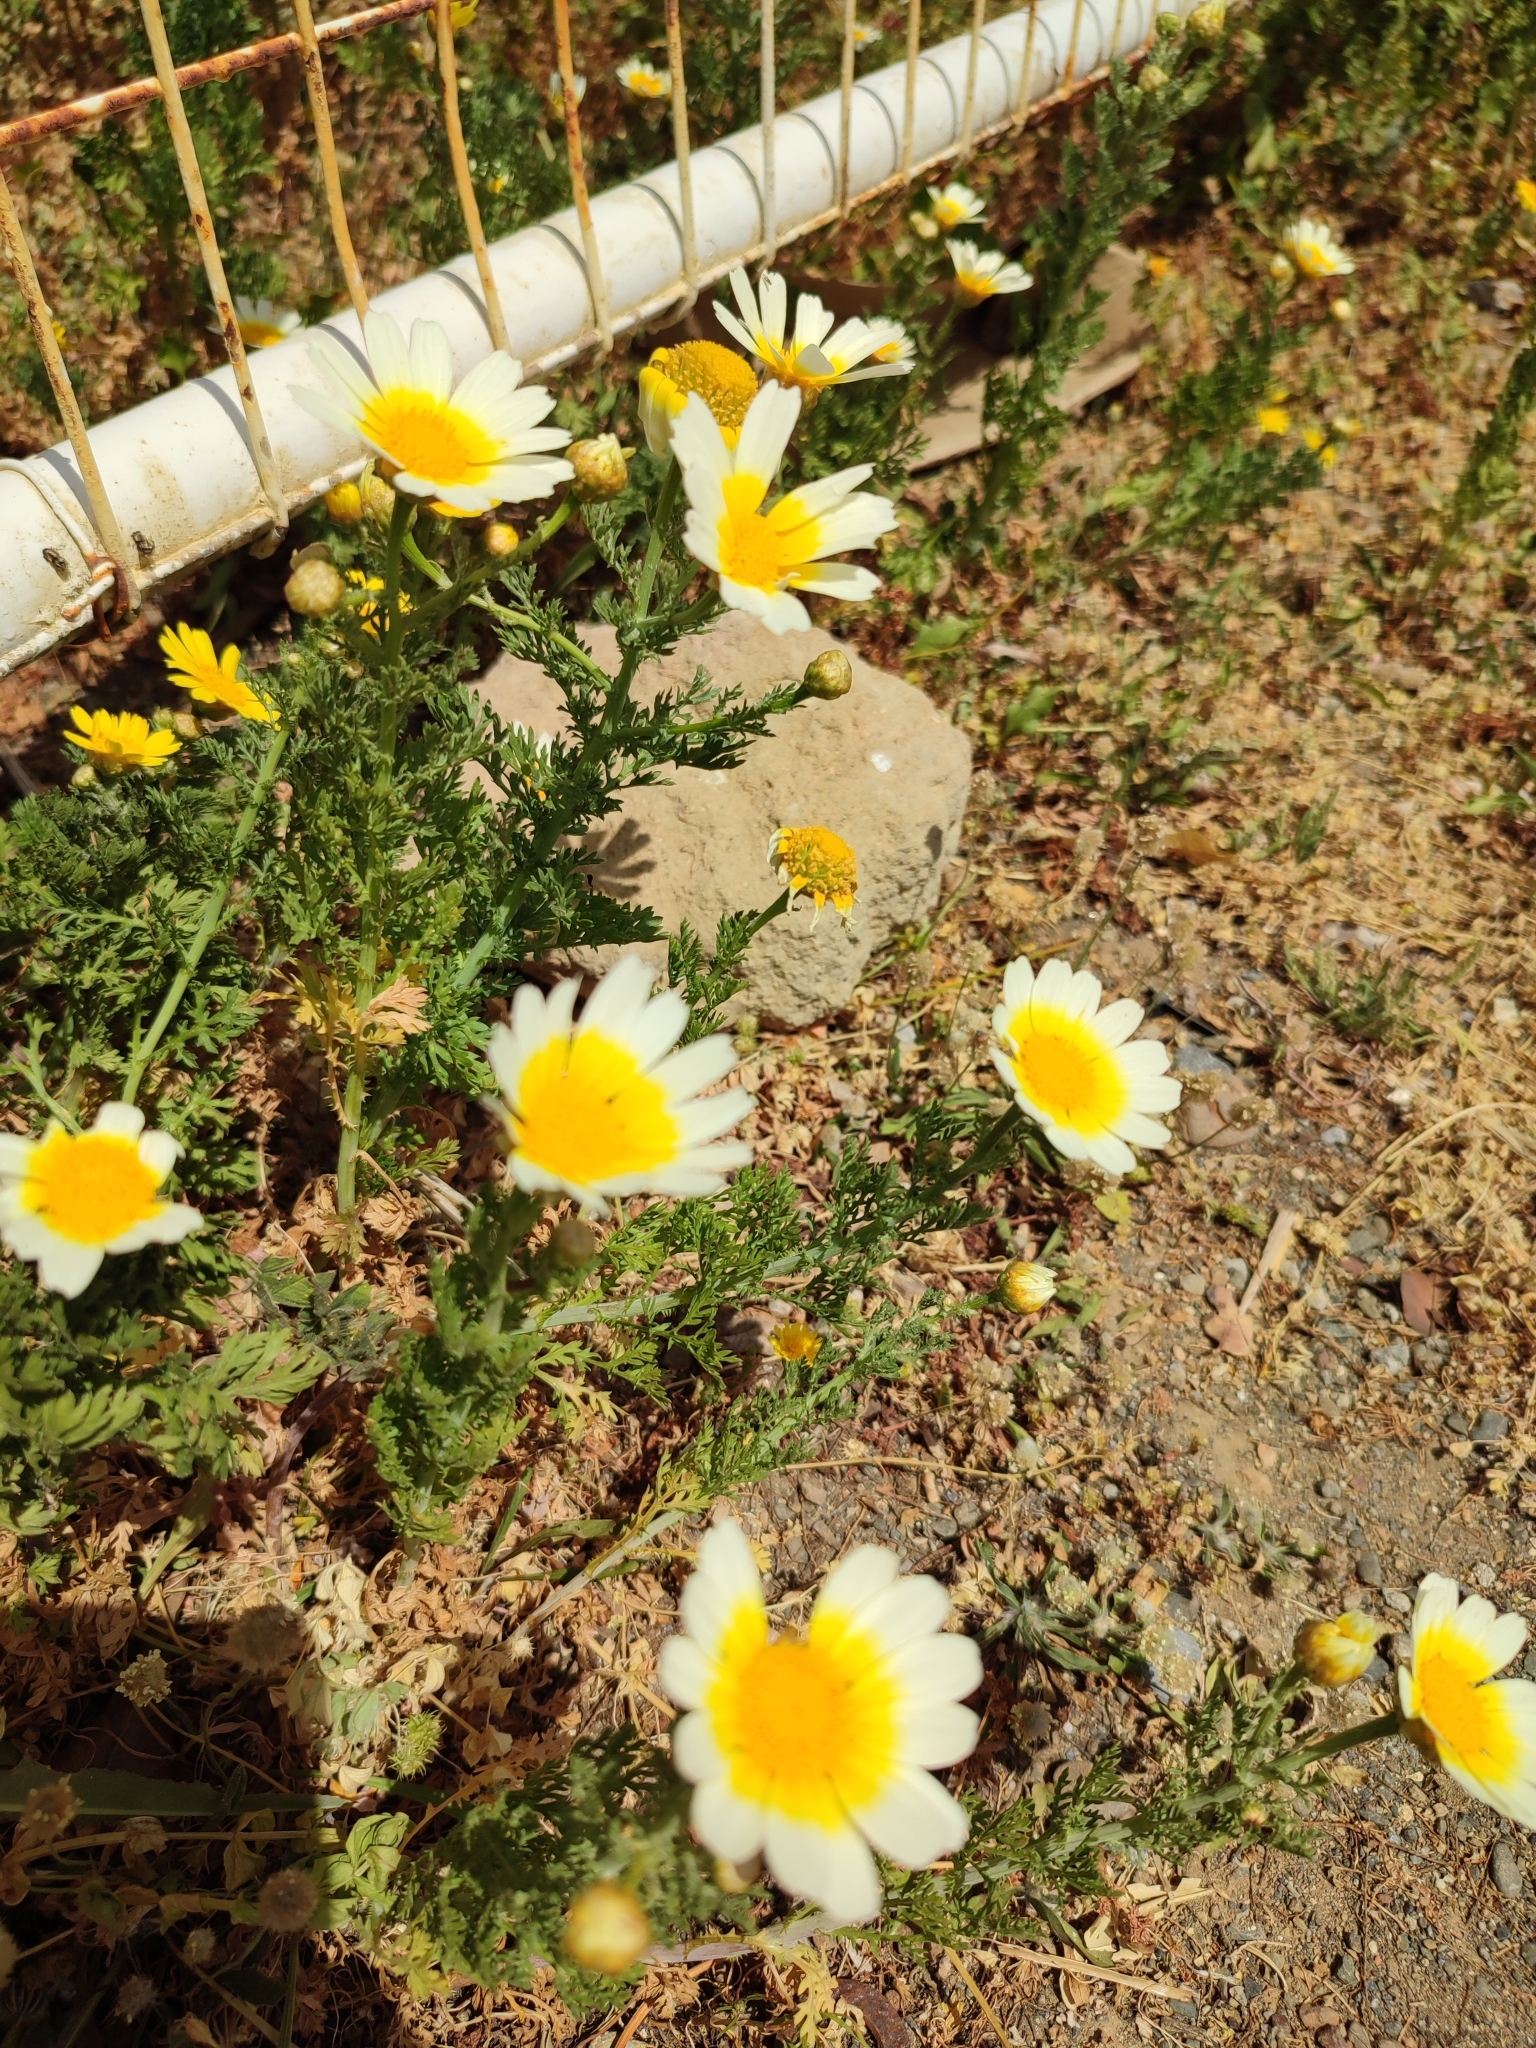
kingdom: Plantae
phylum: Tracheophyta
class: Magnoliopsida
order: Asterales
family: Asteraceae
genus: Glebionis
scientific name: Glebionis coronaria
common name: Crowndaisy
